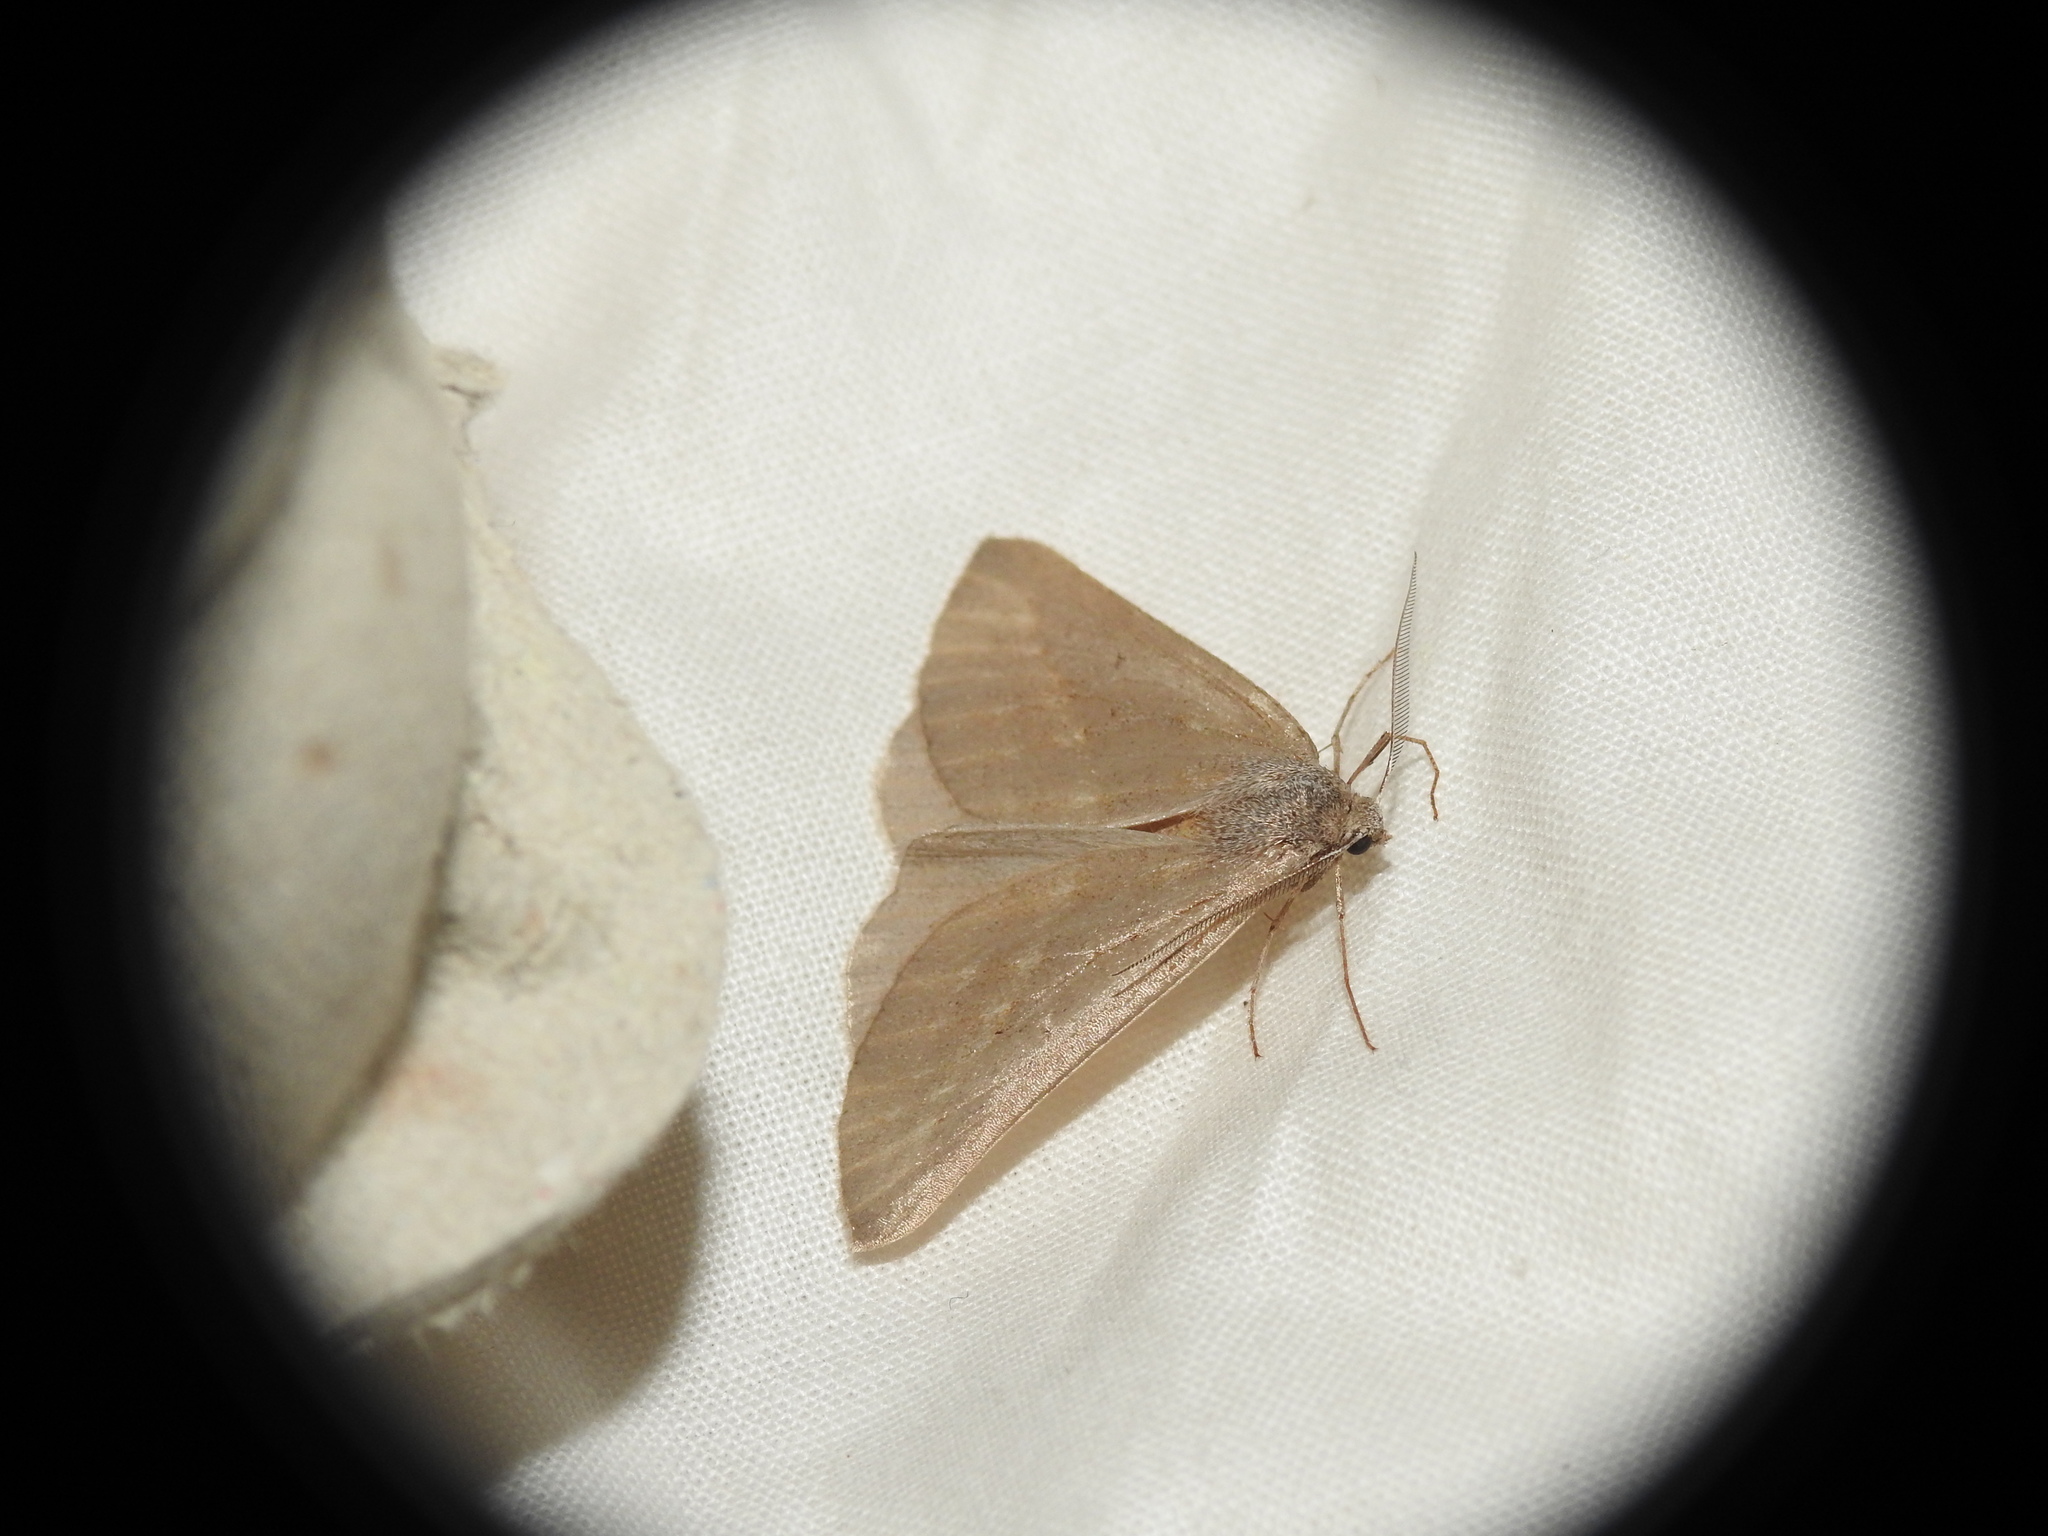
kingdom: Animalia
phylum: Arthropoda
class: Insecta
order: Lepidoptera
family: Geometridae
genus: Chemerina
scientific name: Chemerina caliginearia
